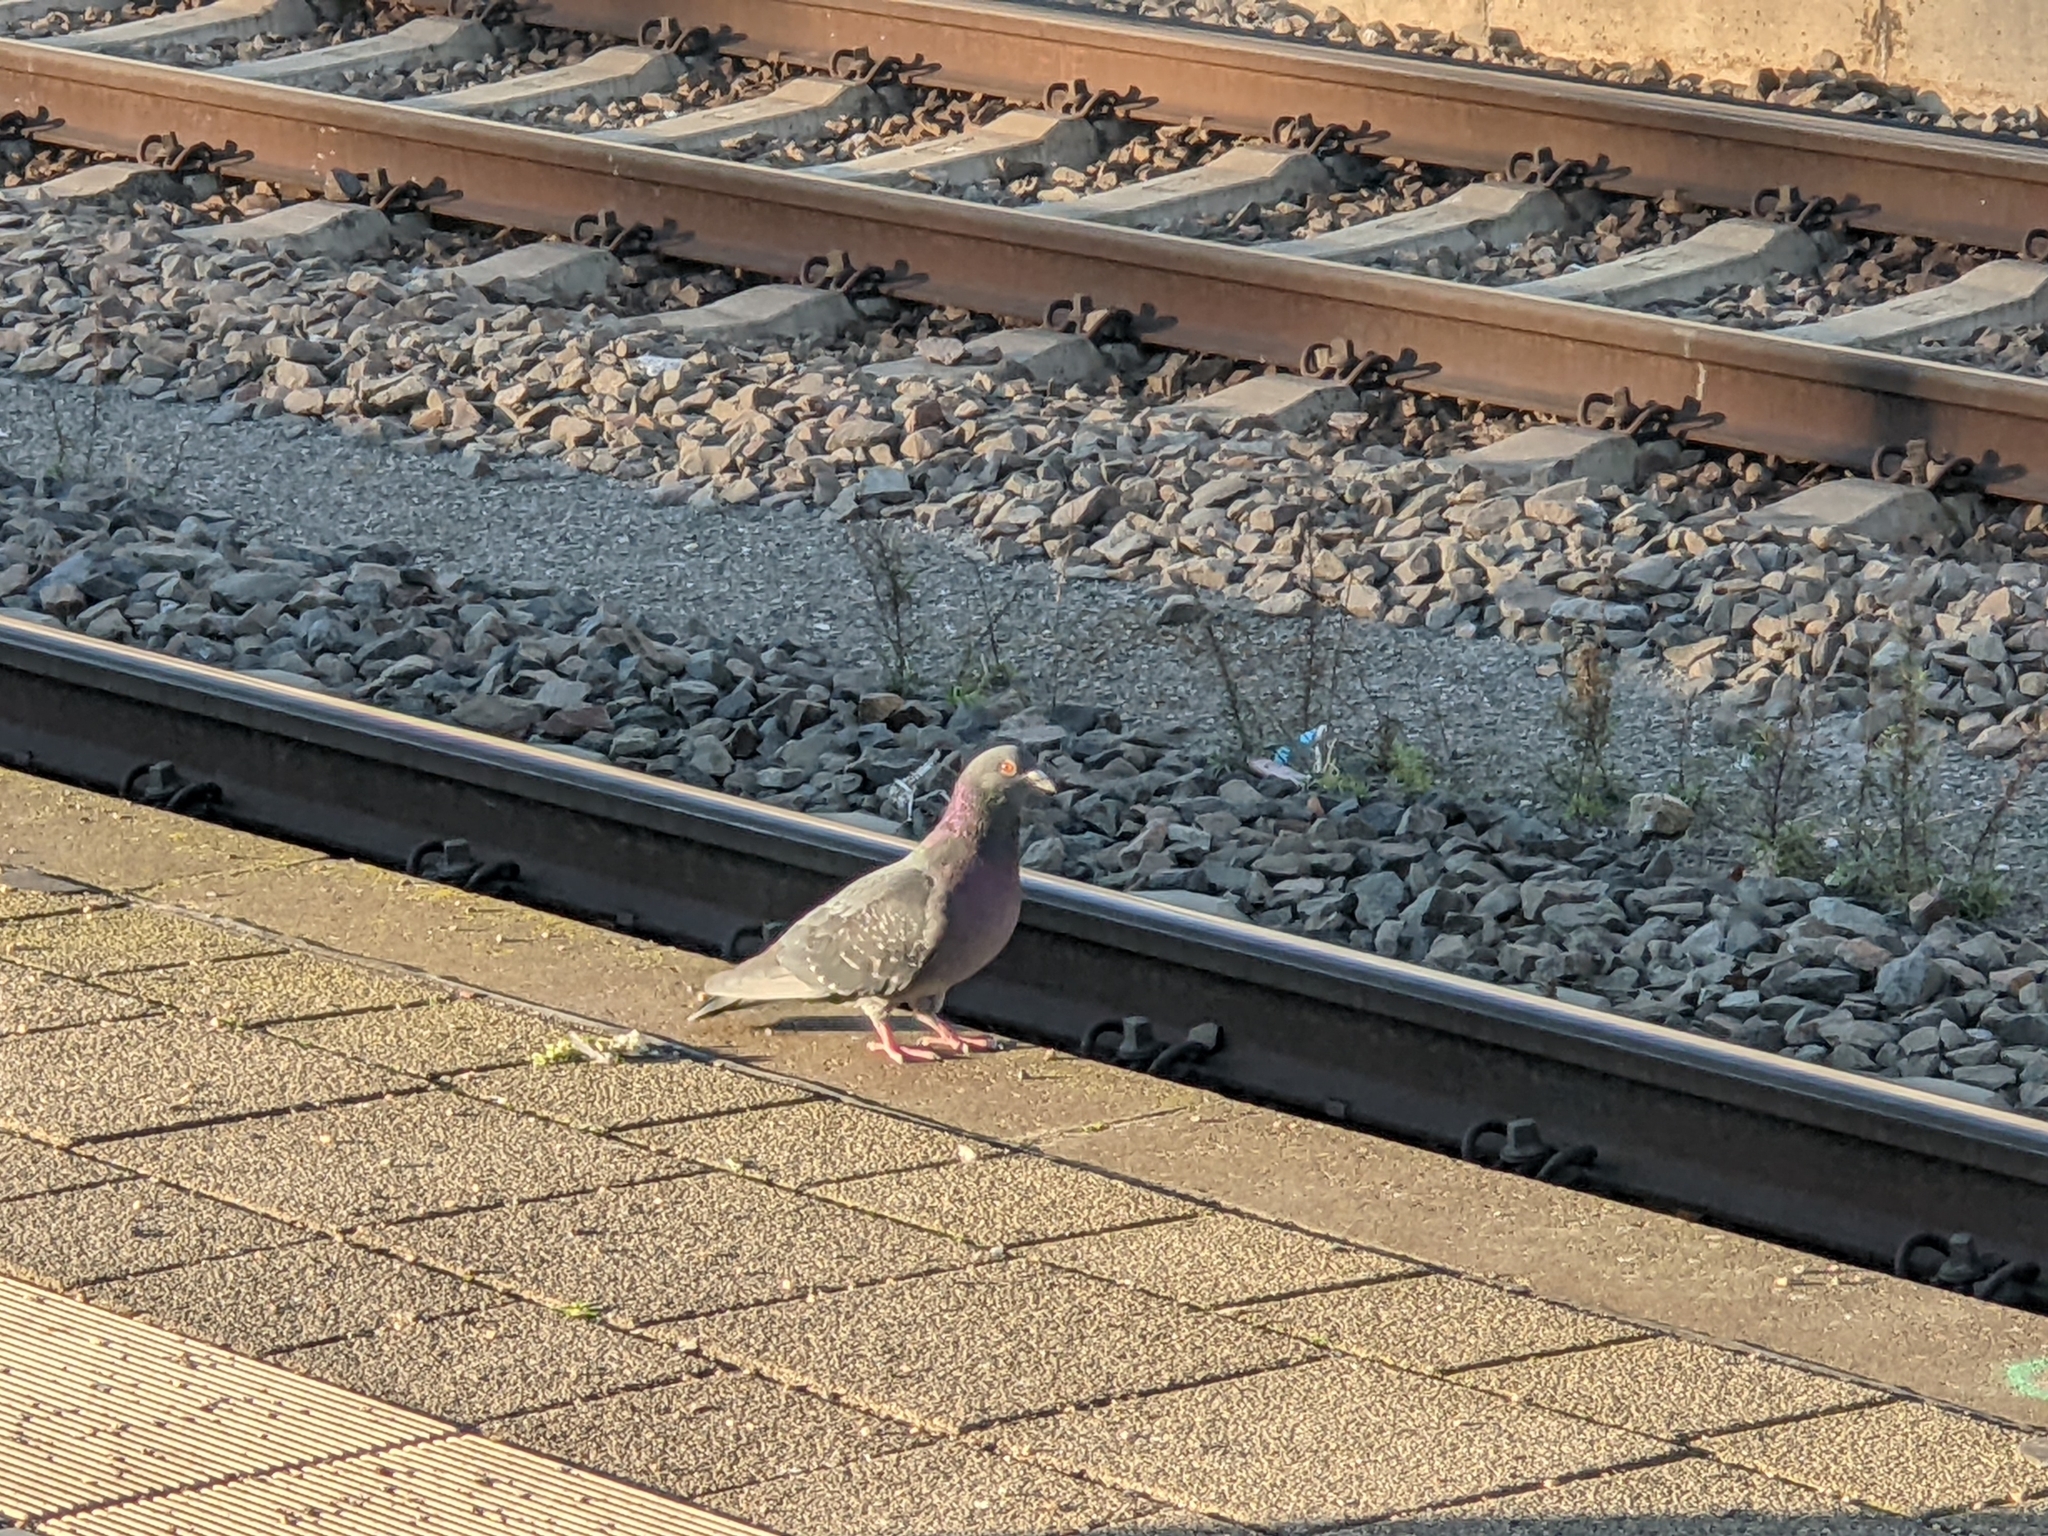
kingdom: Animalia
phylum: Chordata
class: Aves
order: Columbiformes
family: Columbidae
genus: Columba
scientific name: Columba livia
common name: Rock pigeon
